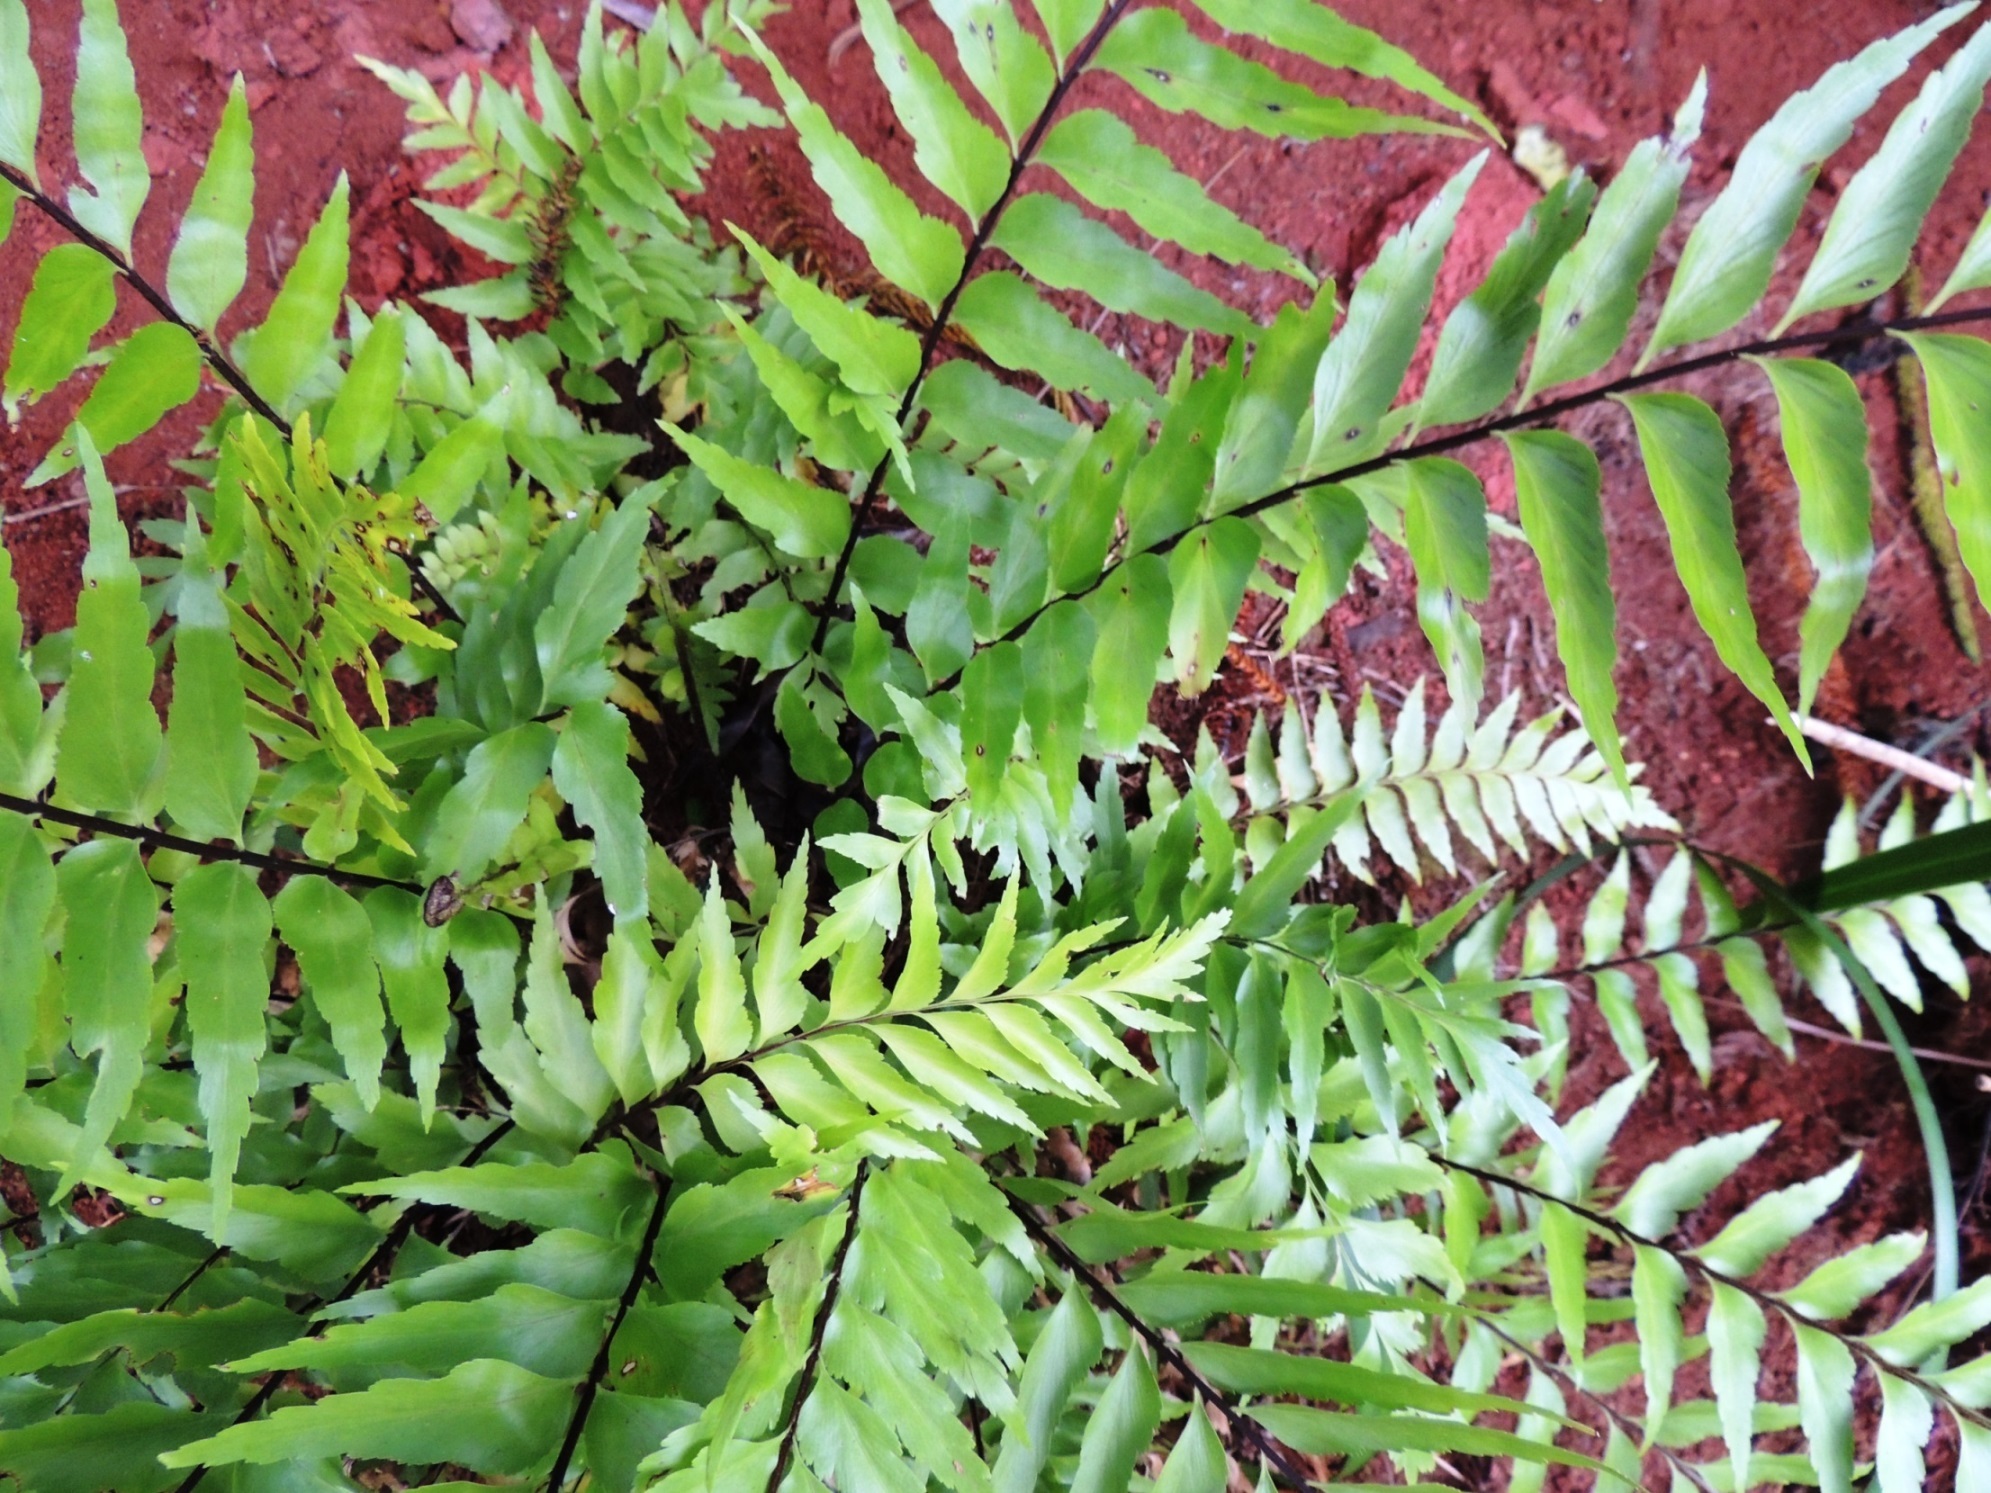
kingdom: Plantae
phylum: Tracheophyta
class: Polypodiopsida
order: Polypodiales
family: Aspleniaceae
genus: Asplenium
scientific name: Asplenium polyodon
